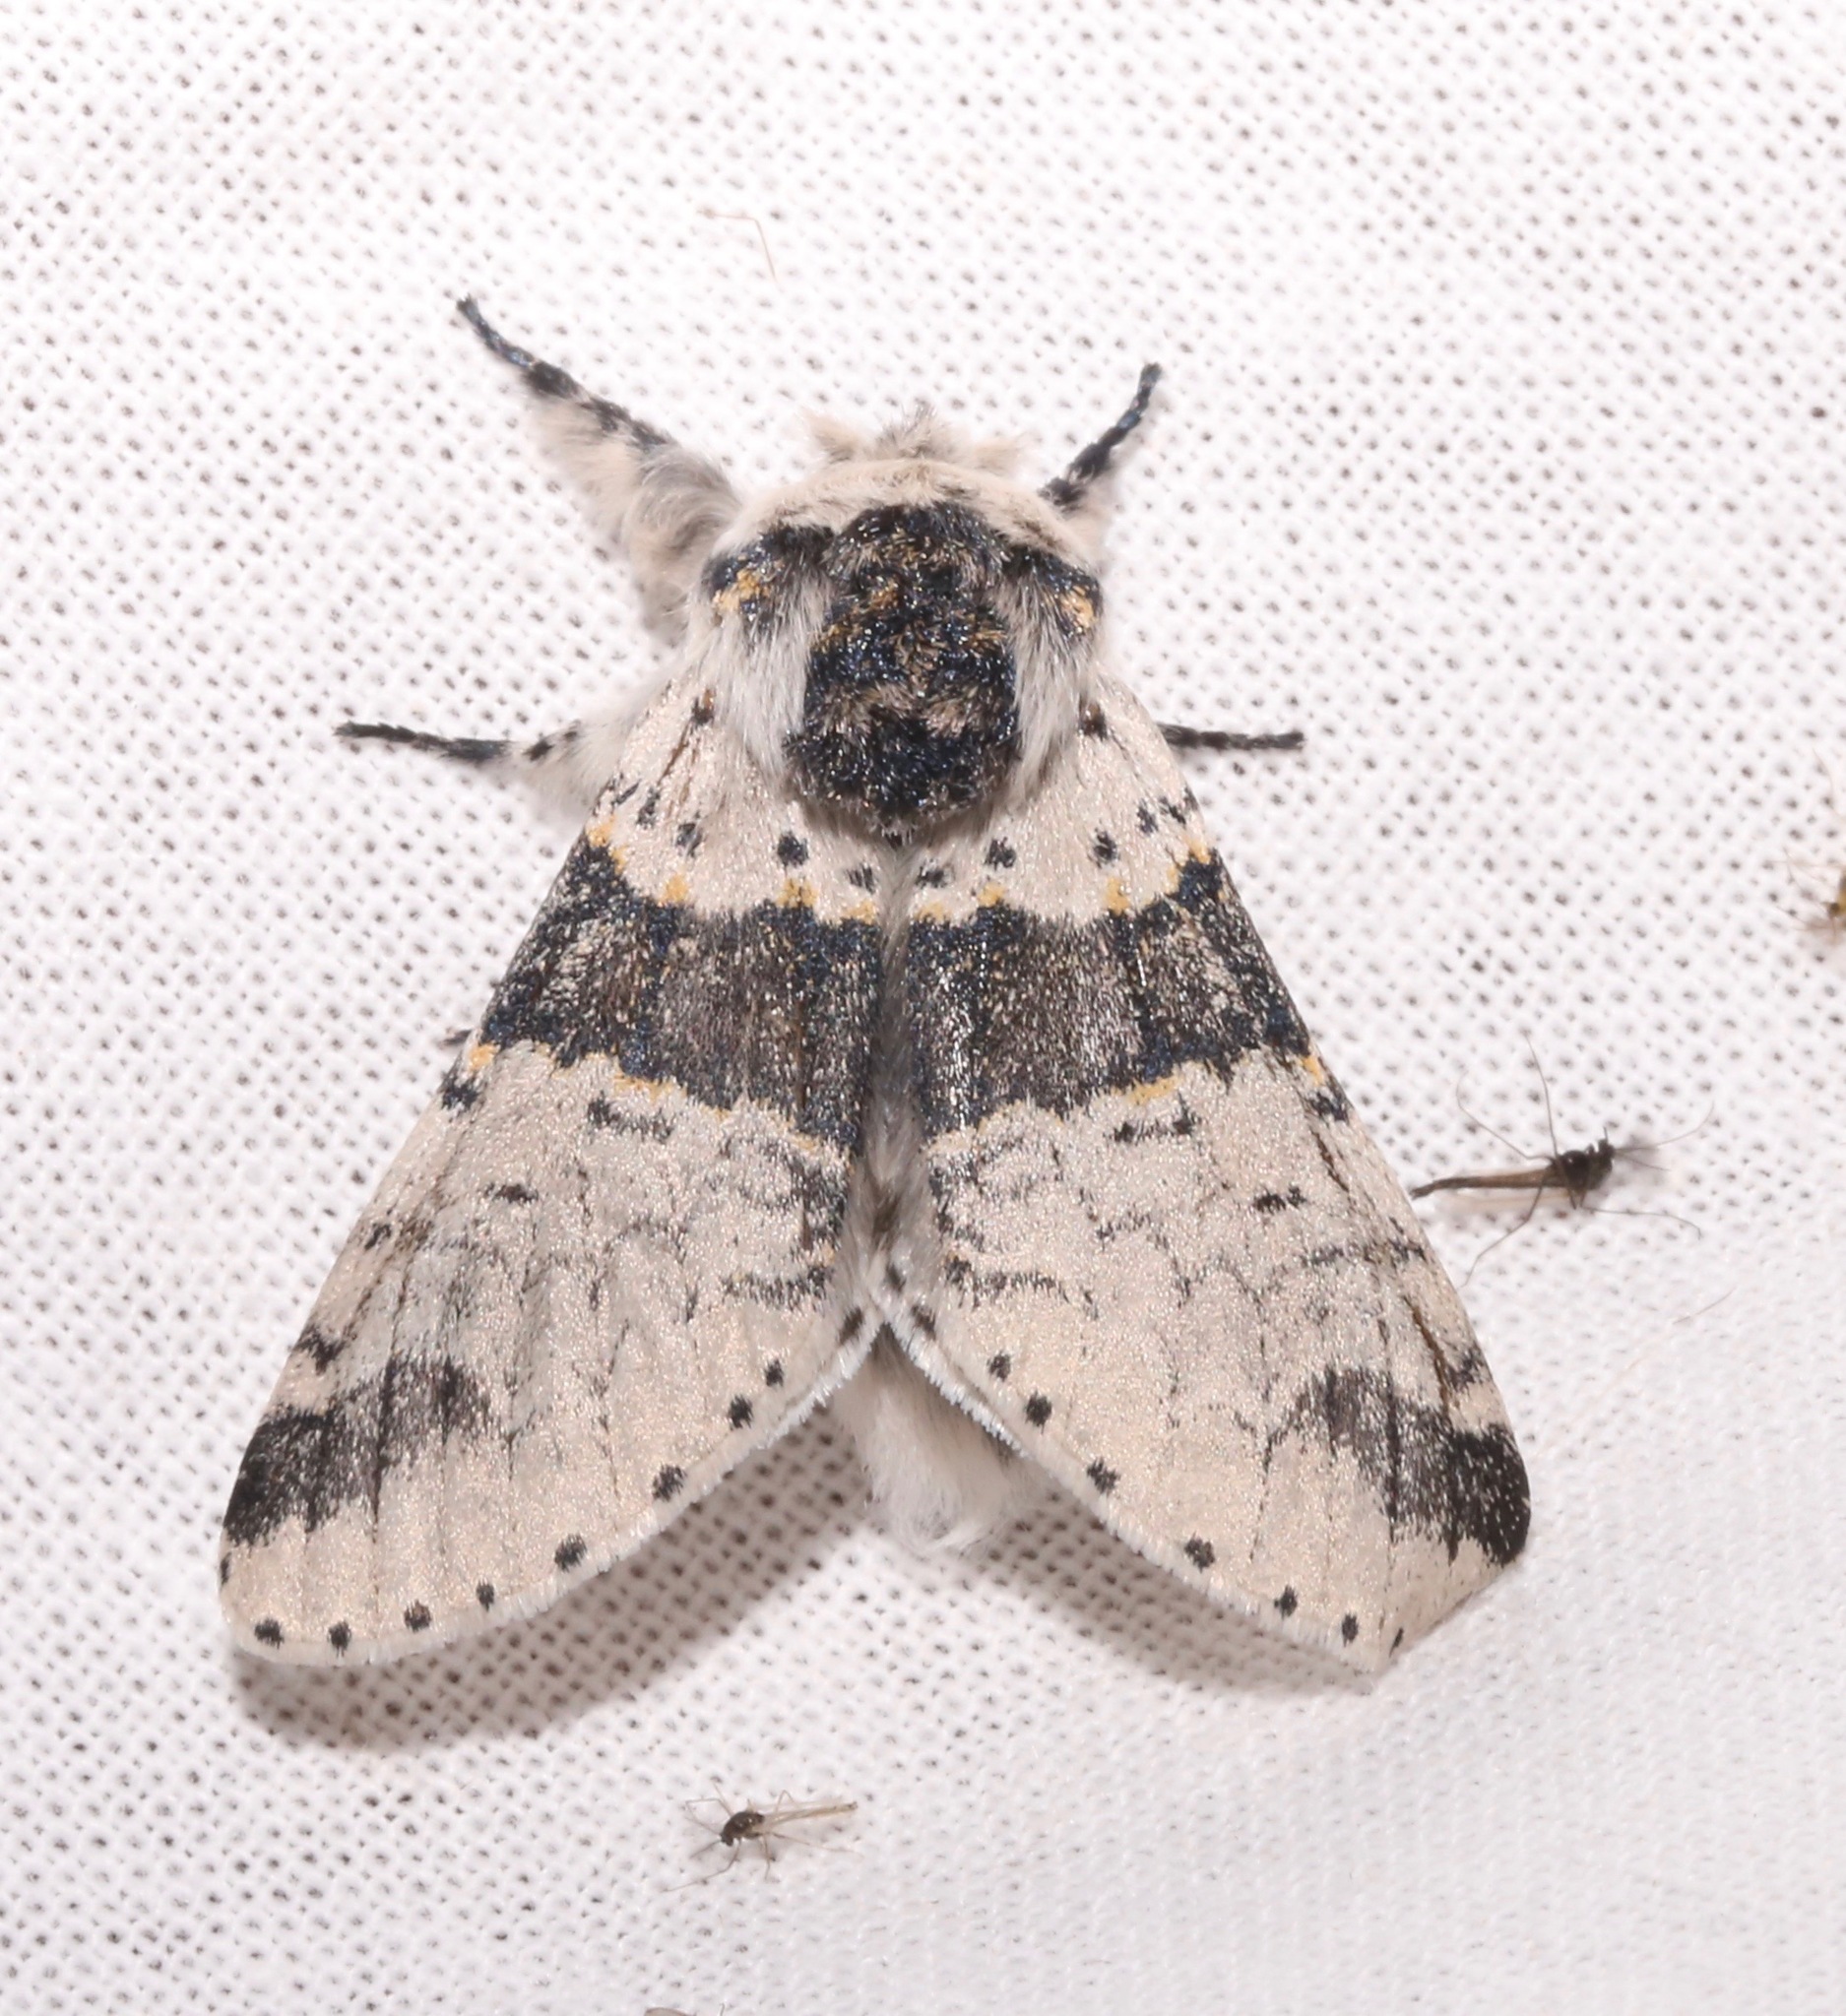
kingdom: Animalia
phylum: Arthropoda
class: Insecta
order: Lepidoptera
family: Notodontidae
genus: Furcula
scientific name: Furcula occidentalis
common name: Western furcula moth
